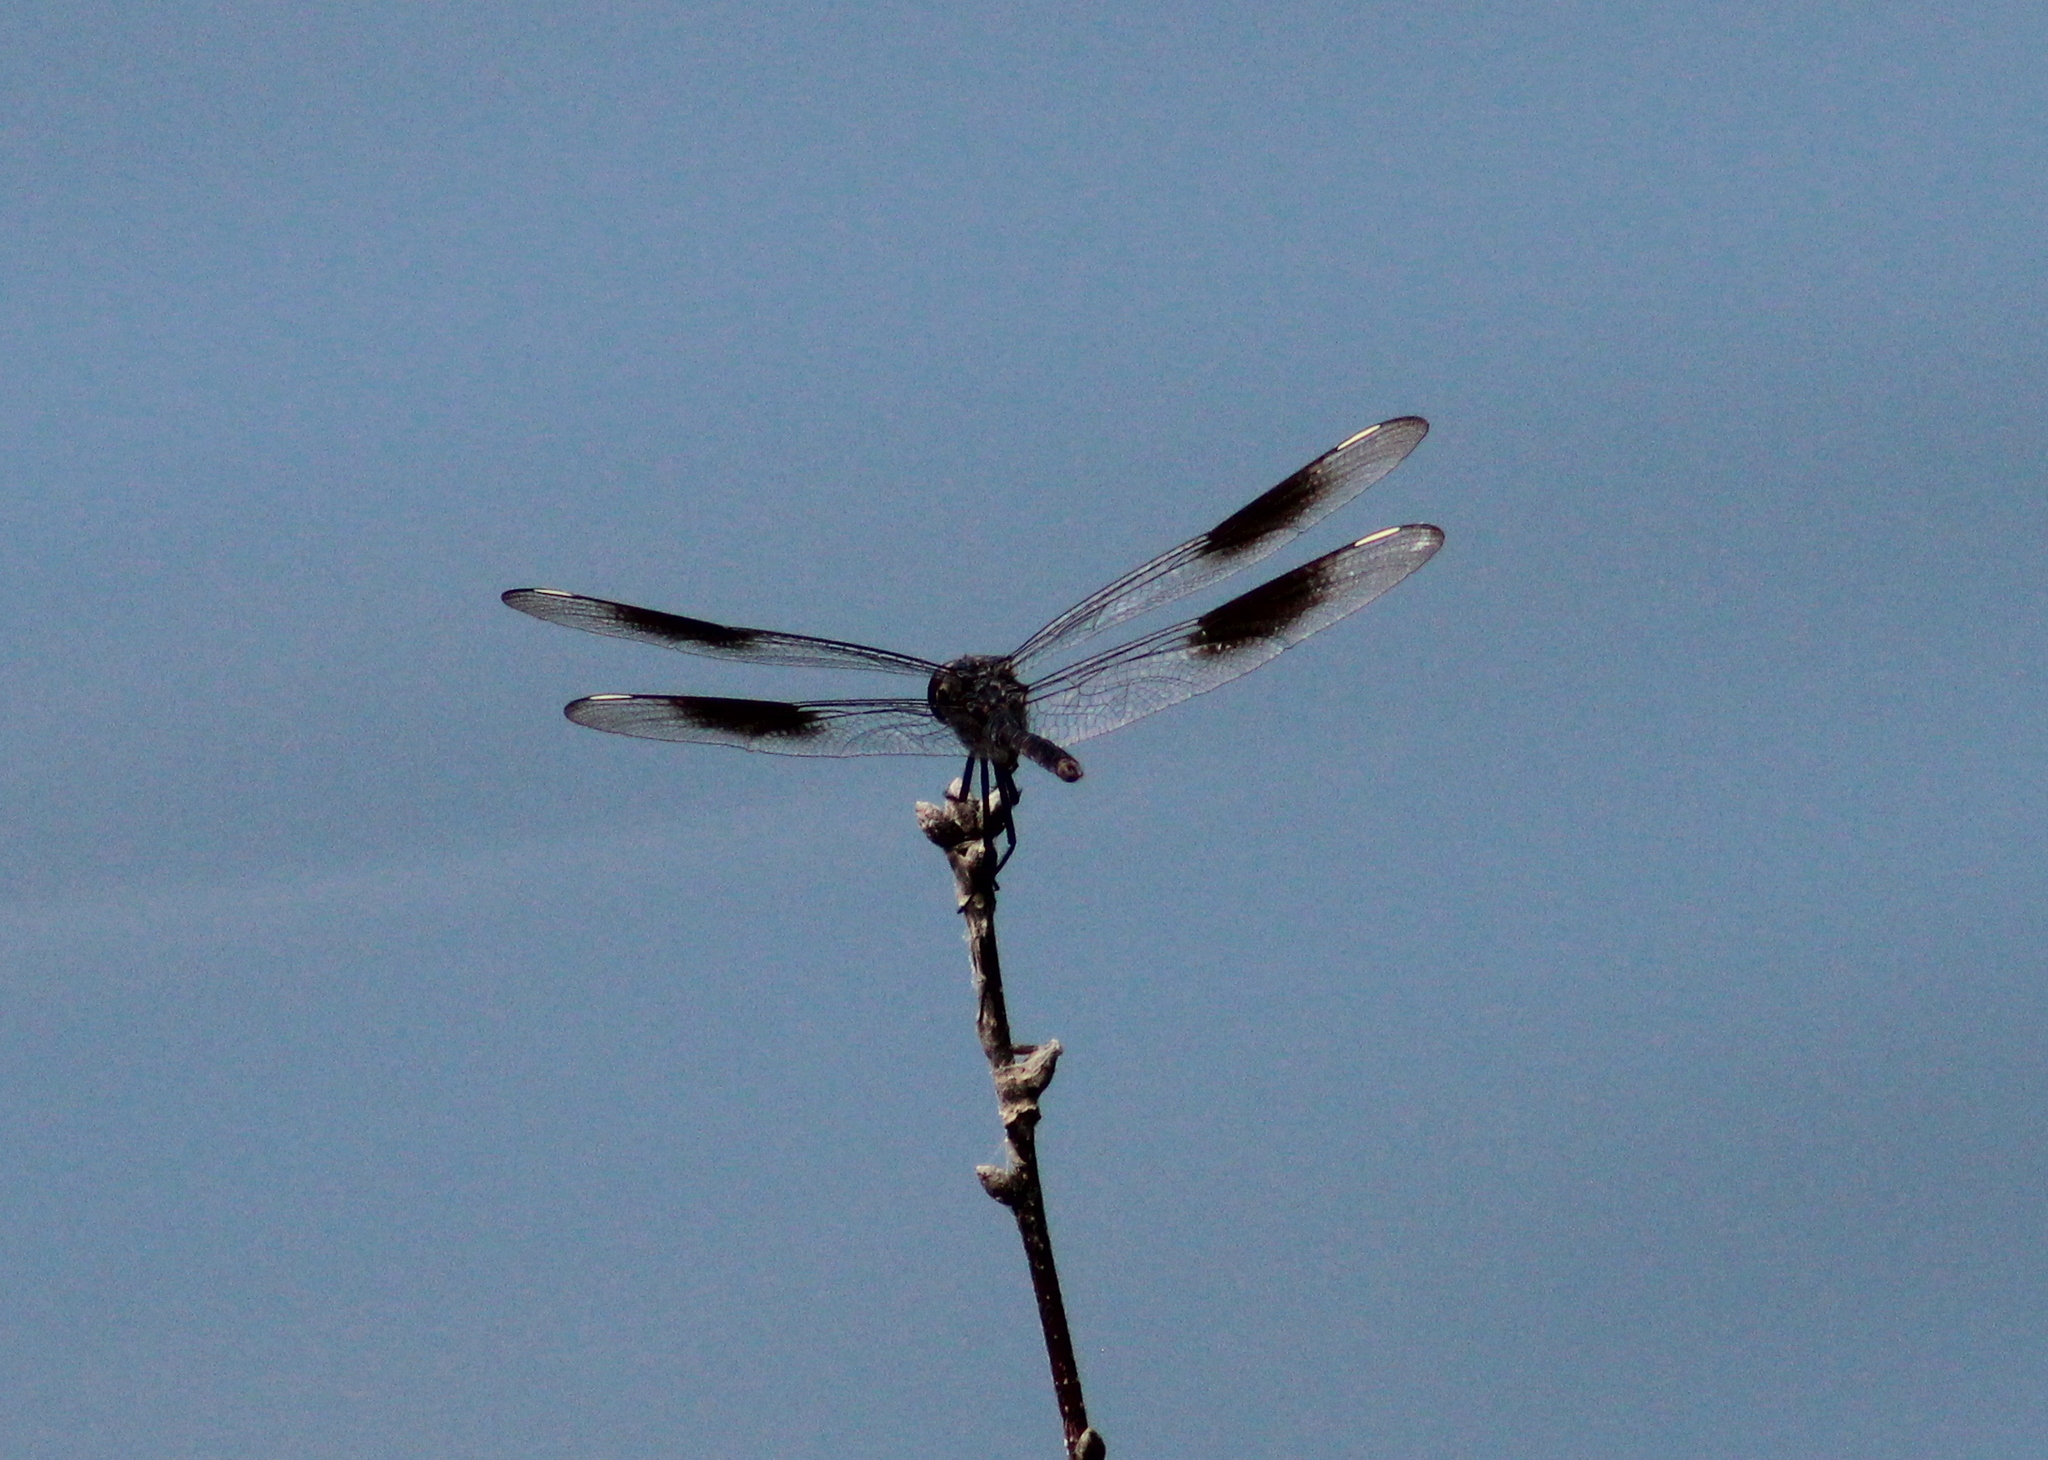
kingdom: Animalia
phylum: Arthropoda
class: Insecta
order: Odonata
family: Libellulidae
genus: Brachymesia
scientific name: Brachymesia gravida
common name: Four-spotted pennant
